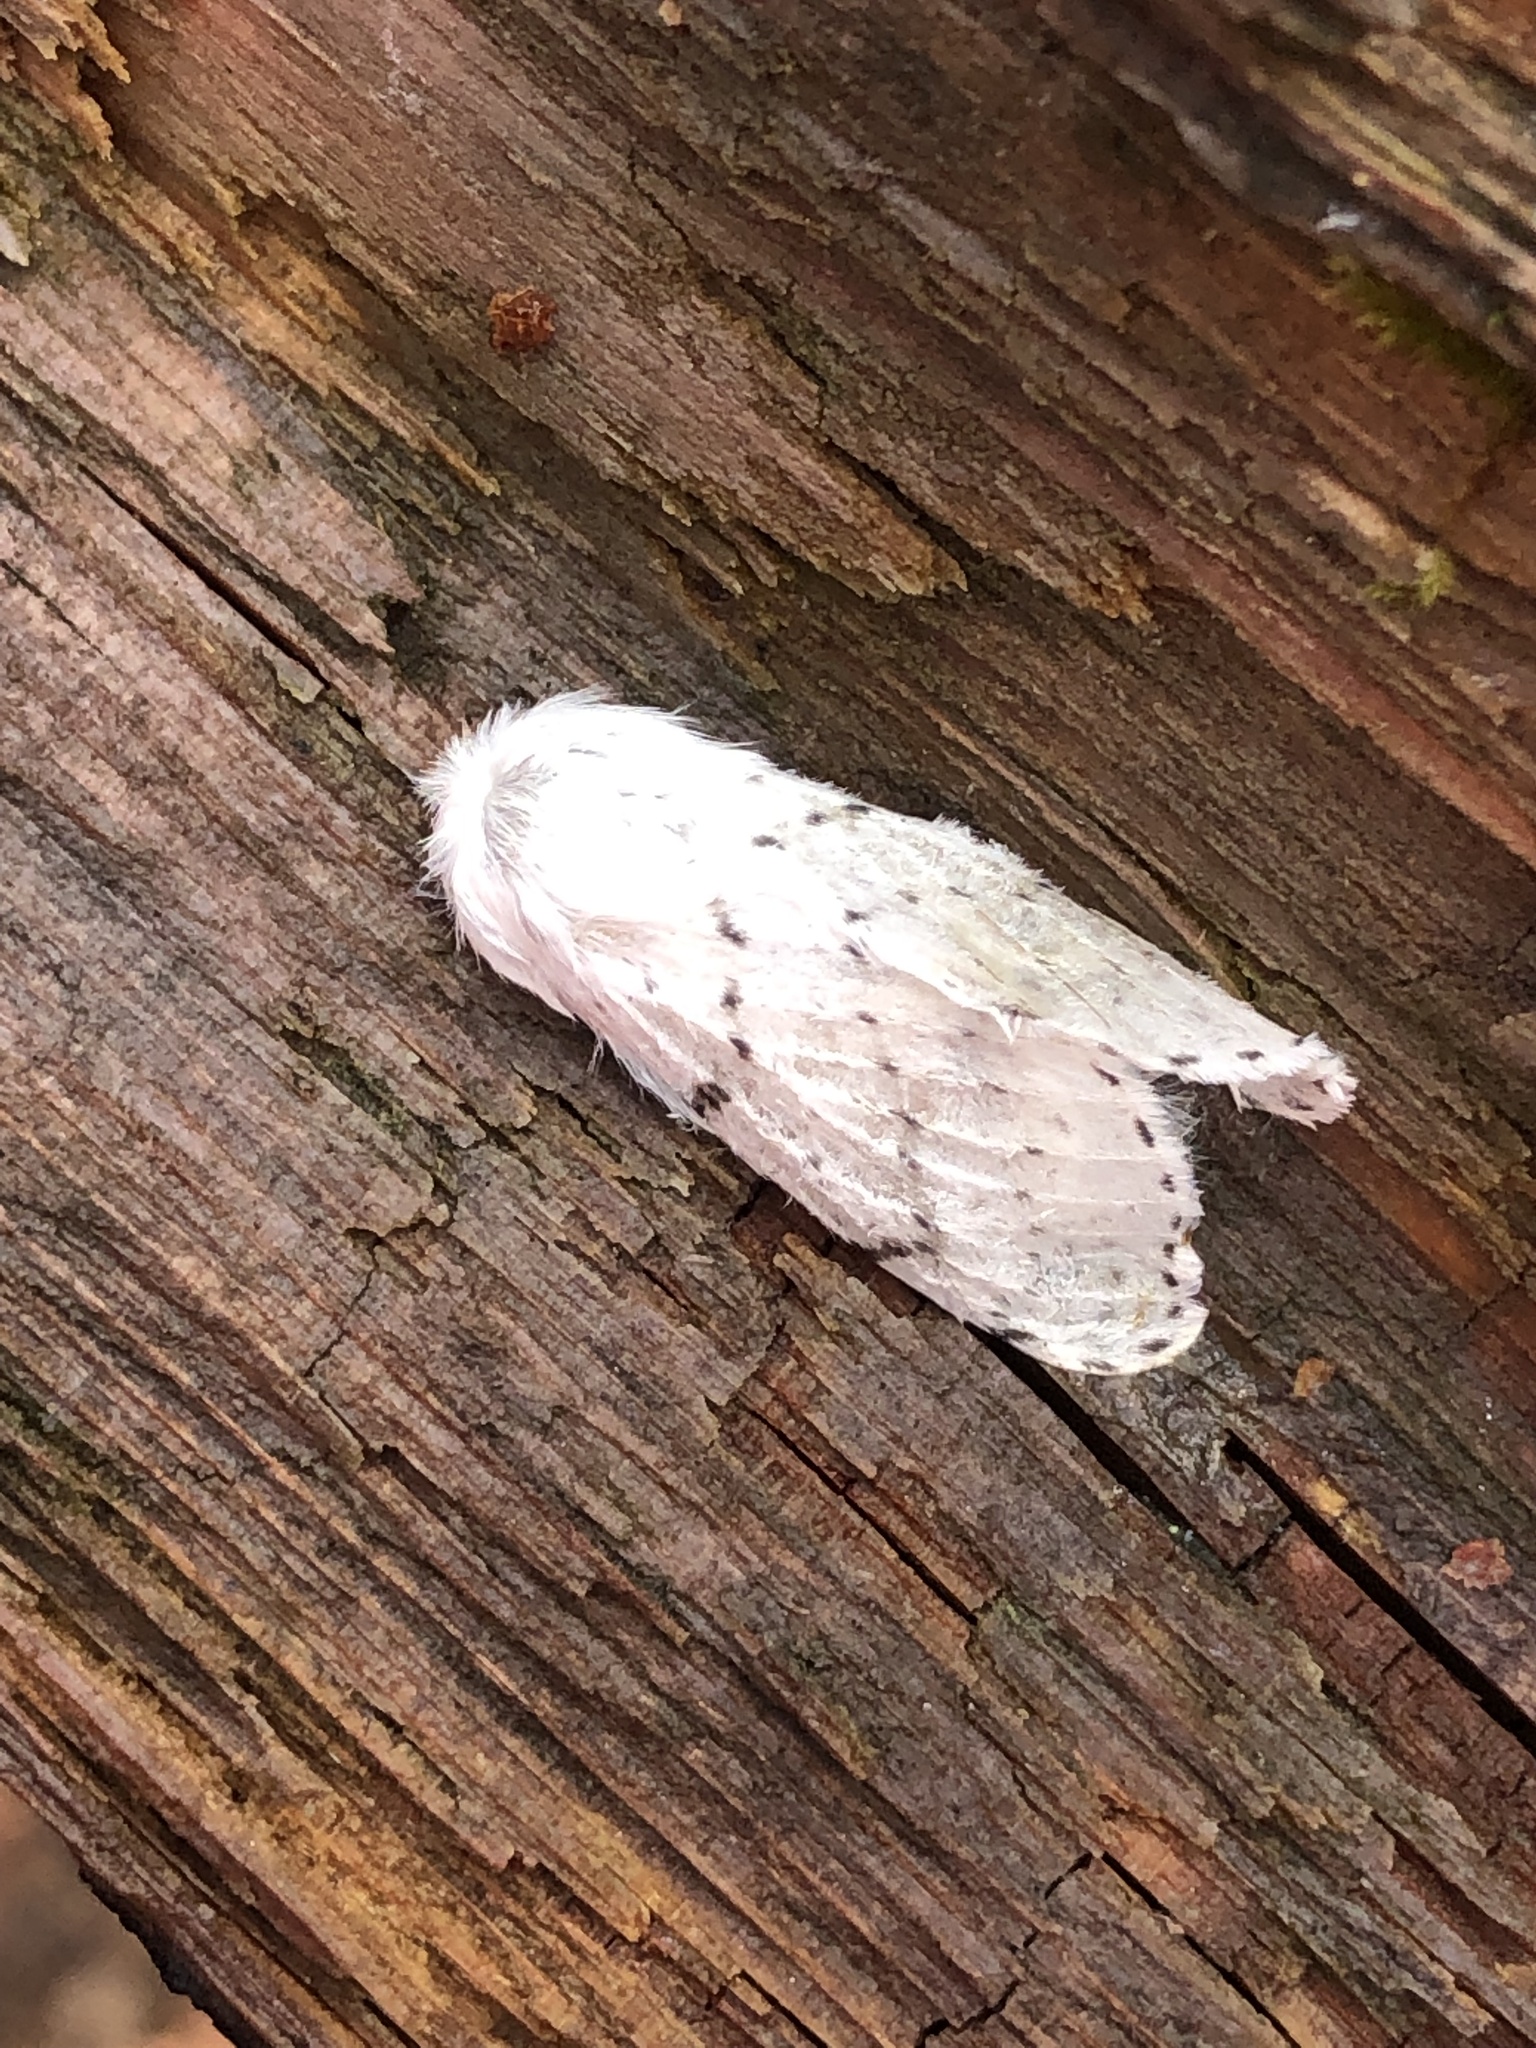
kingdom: Animalia
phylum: Arthropoda
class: Insecta
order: Lepidoptera
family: Lasiocampidae
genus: Artace
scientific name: Artace cribrarius
